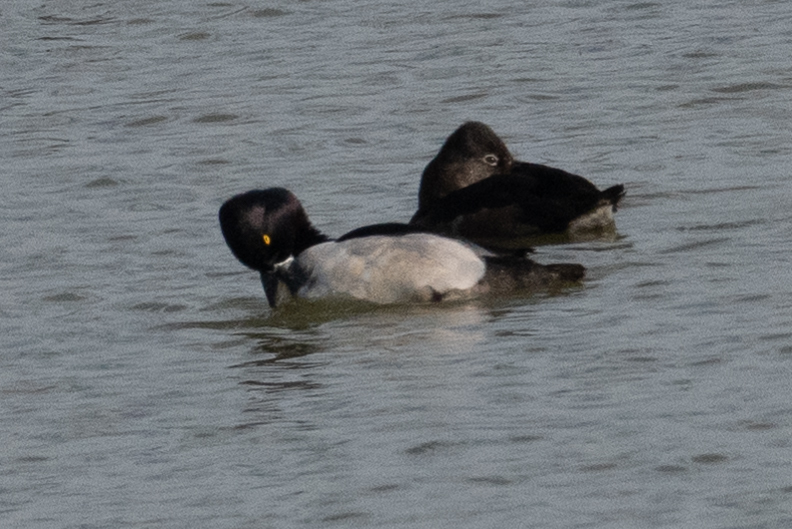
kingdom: Animalia
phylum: Chordata
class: Aves
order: Anseriformes
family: Anatidae
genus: Aythya
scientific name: Aythya collaris
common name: Ring-necked duck
